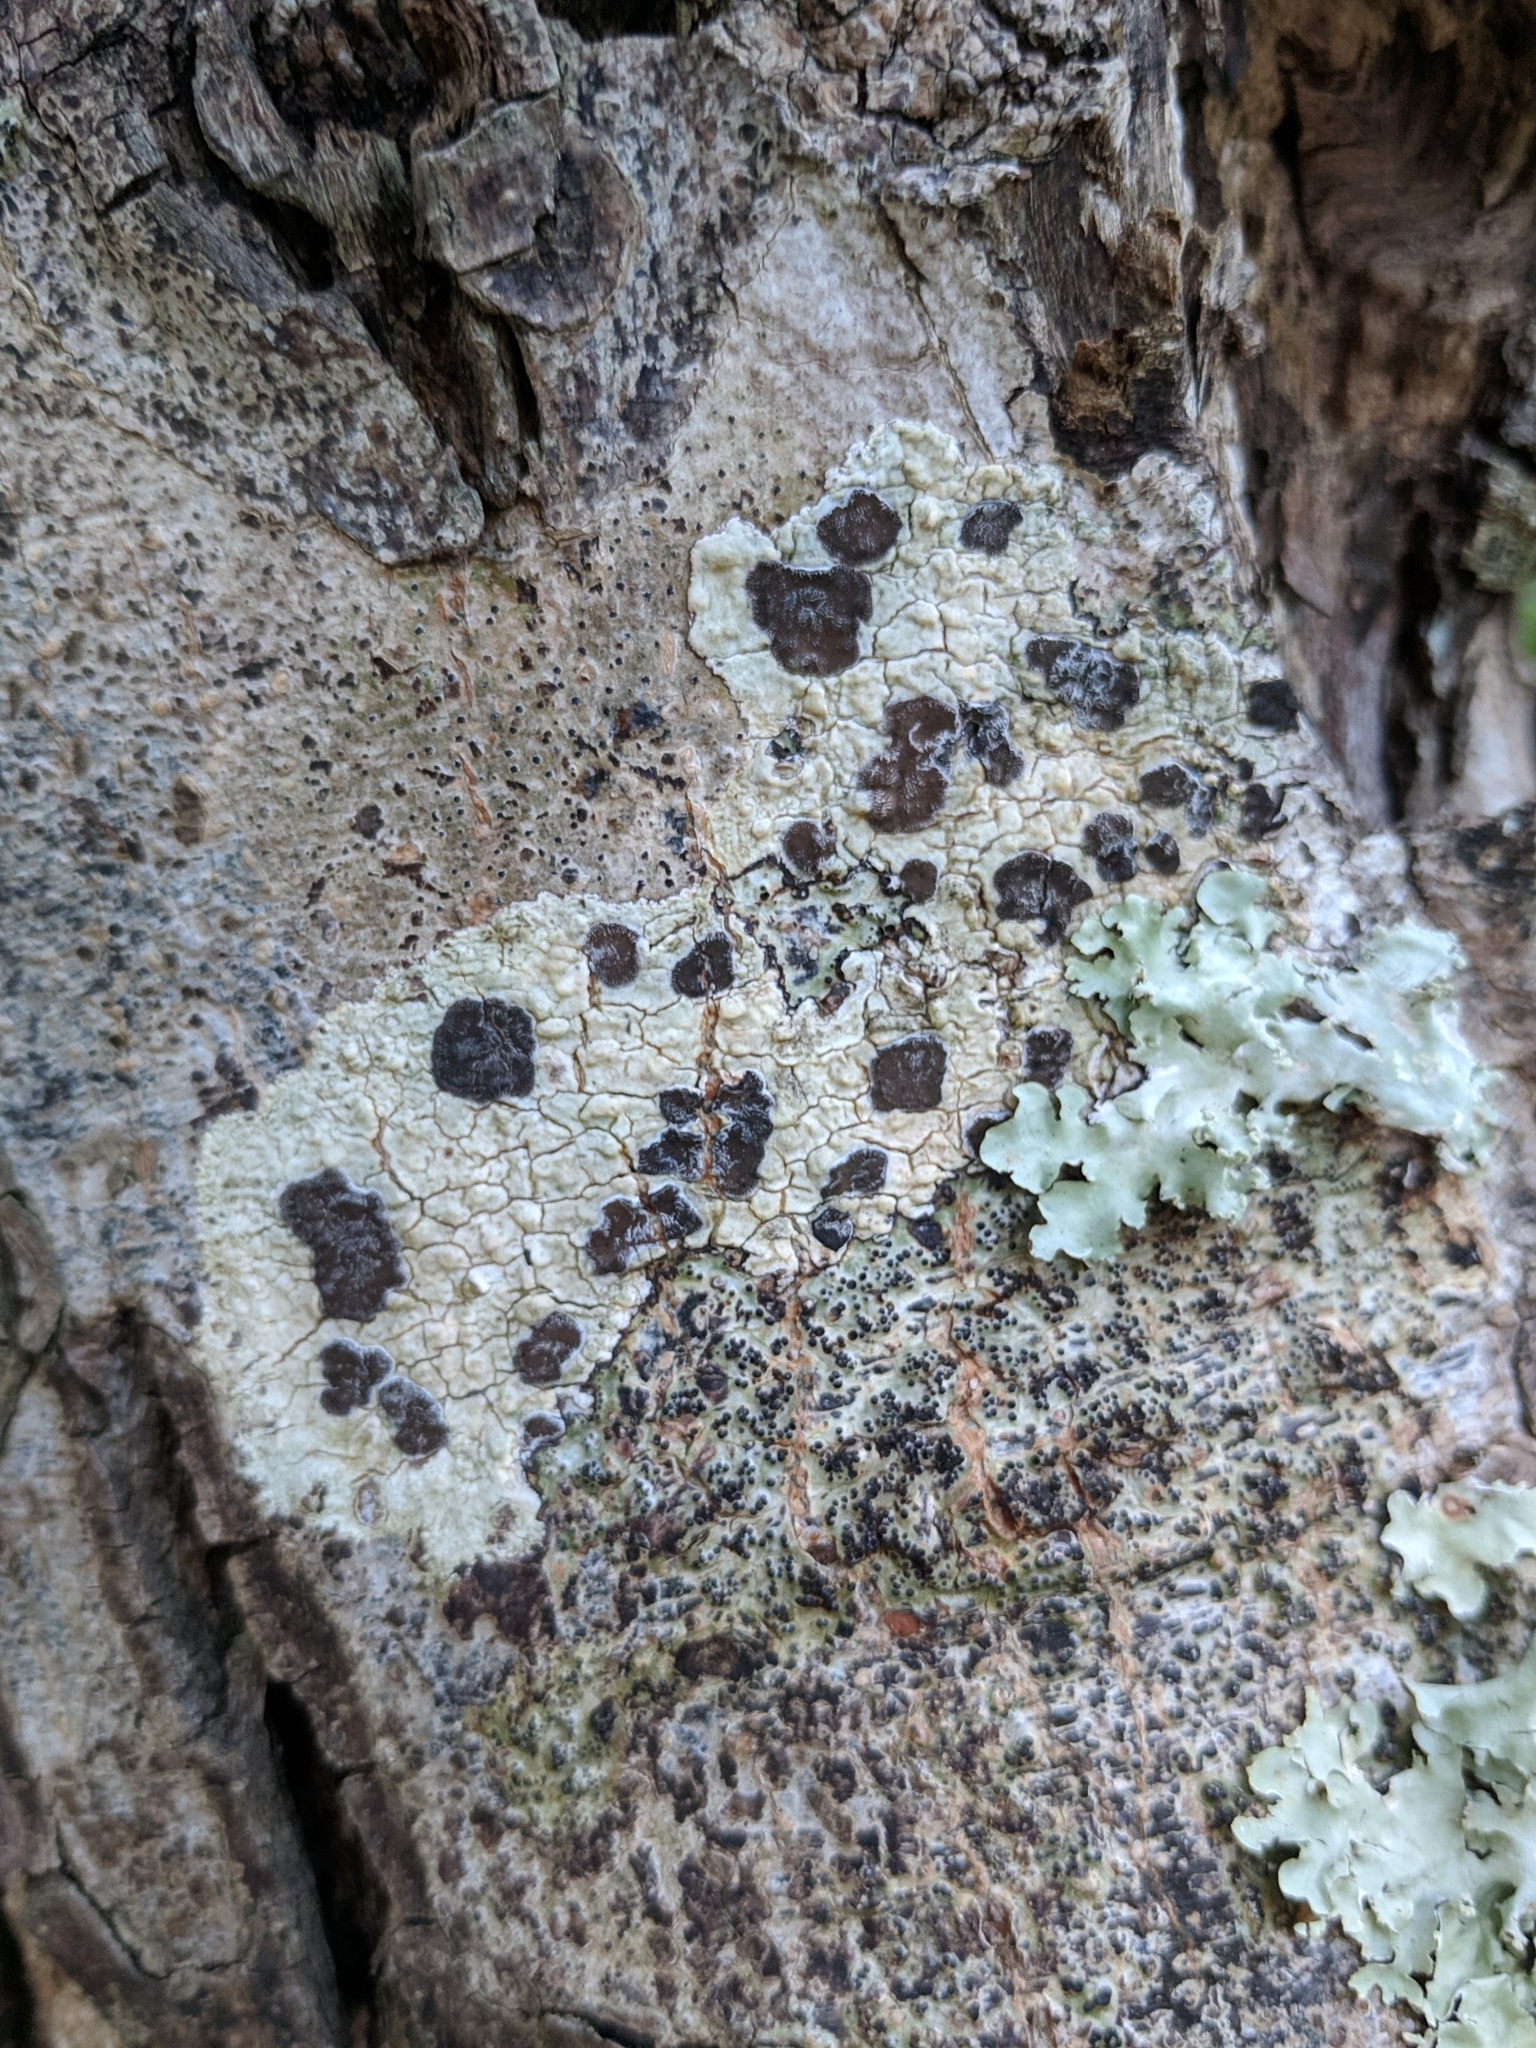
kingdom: Fungi
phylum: Ascomycota
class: Lecanoromycetes
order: Ostropales
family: Graphidaceae
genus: Glyphis
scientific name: Glyphis cicatricosa
